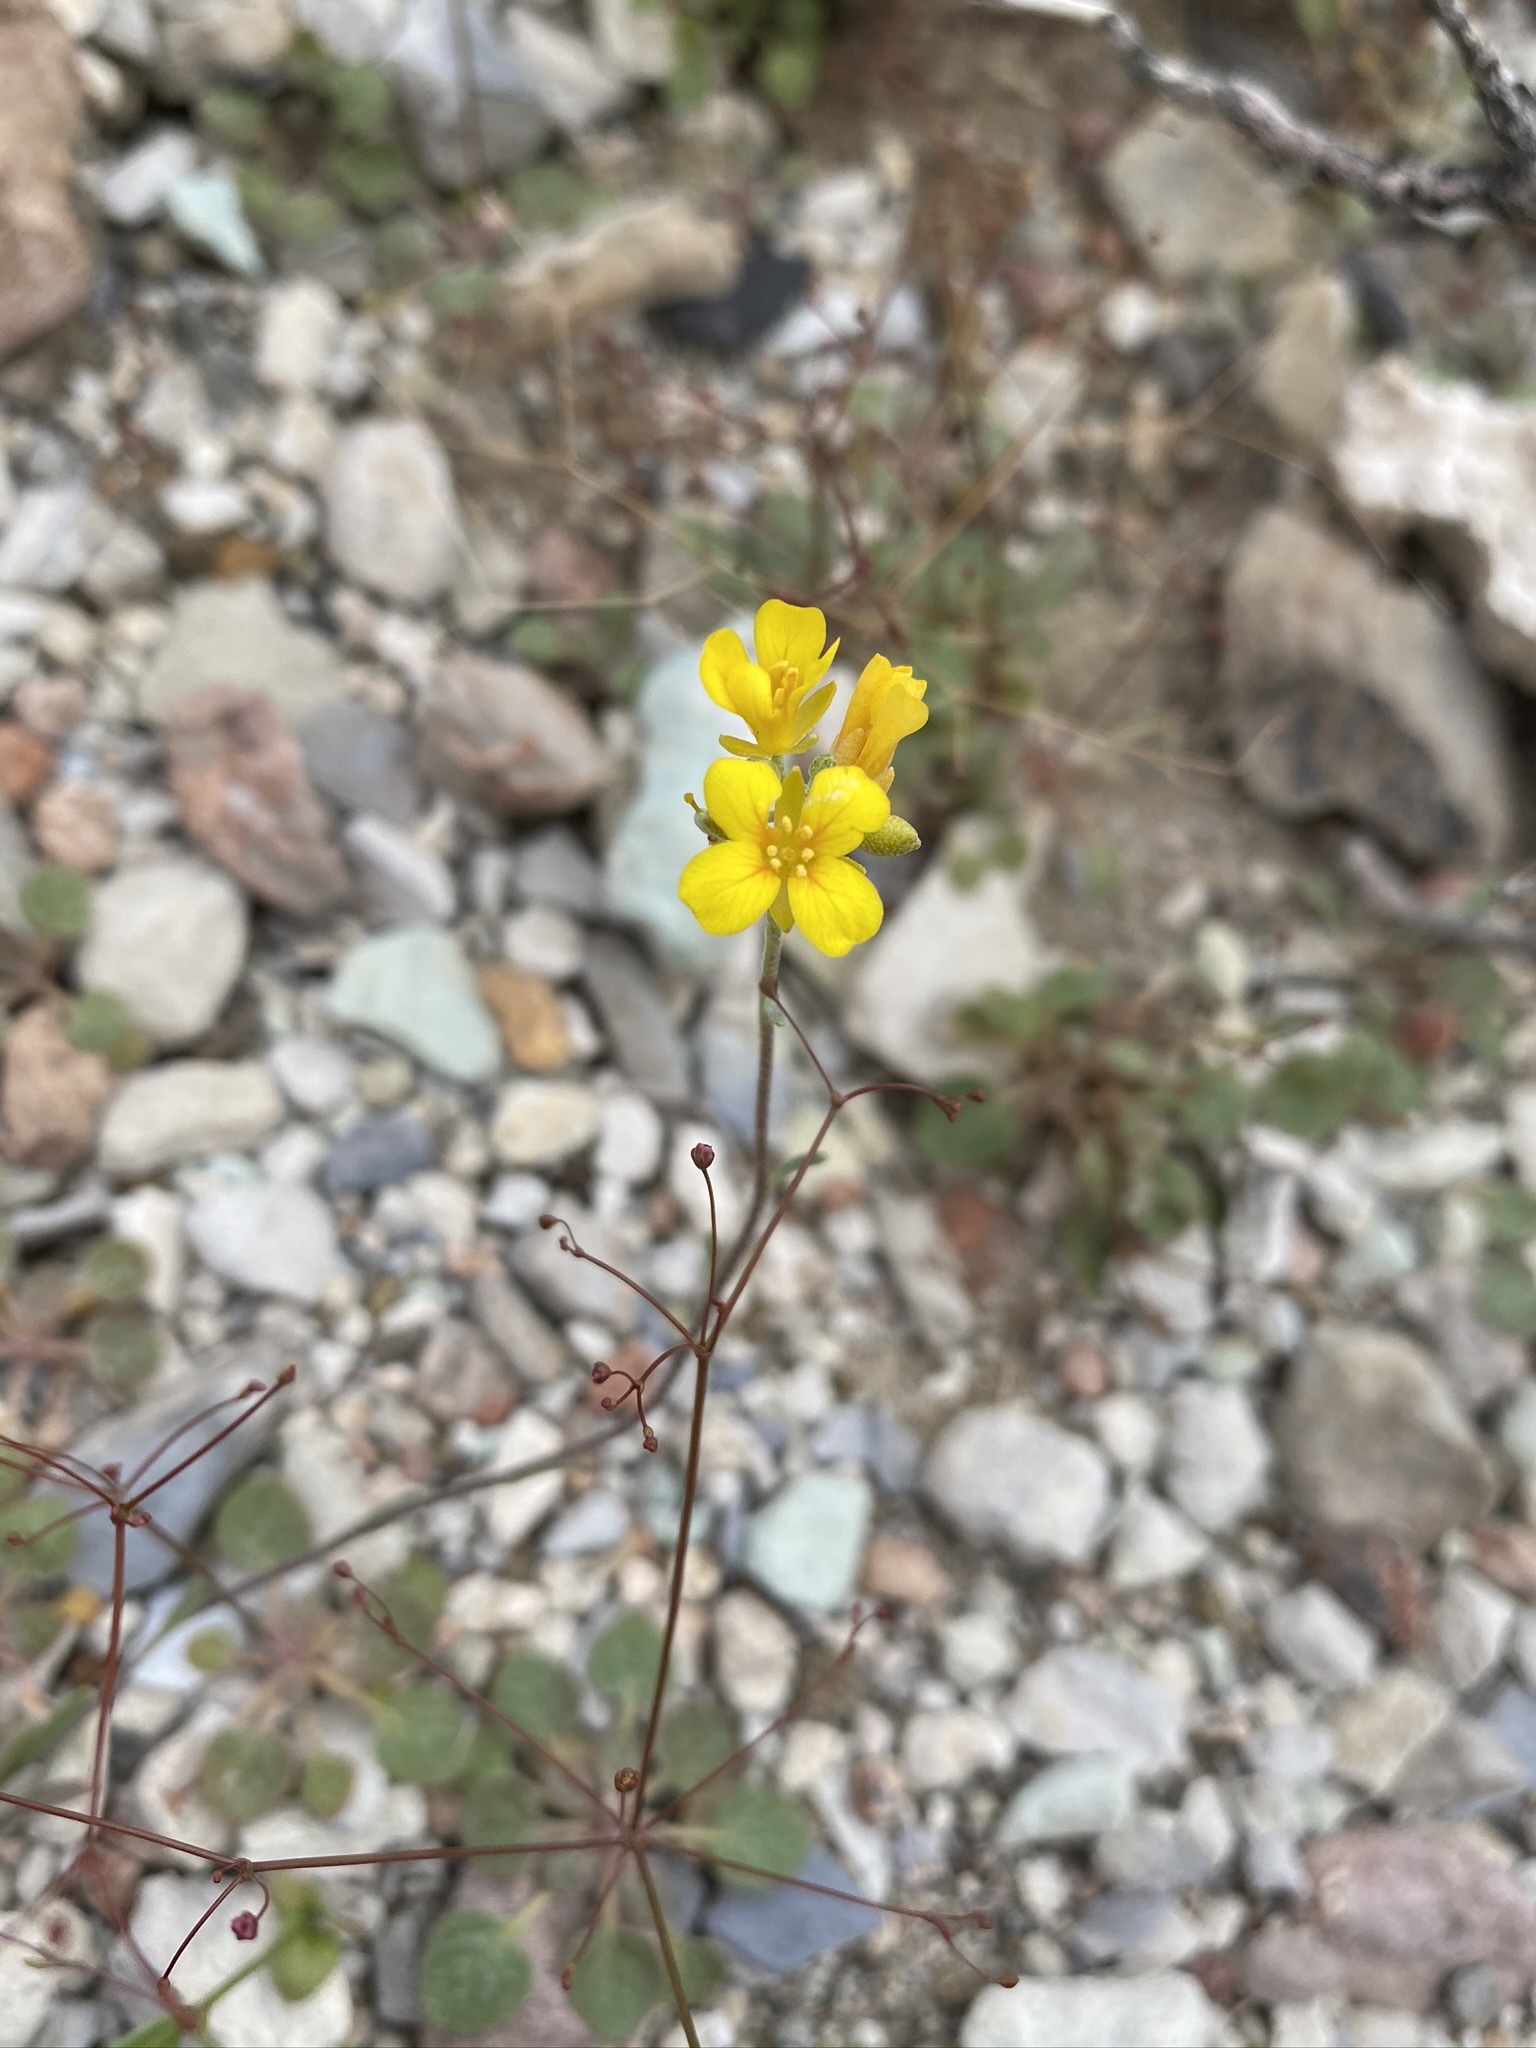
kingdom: Plantae
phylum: Tracheophyta
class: Magnoliopsida
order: Brassicales
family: Brassicaceae
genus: Physaria
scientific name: Physaria tenella
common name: Moapa bladderpod
